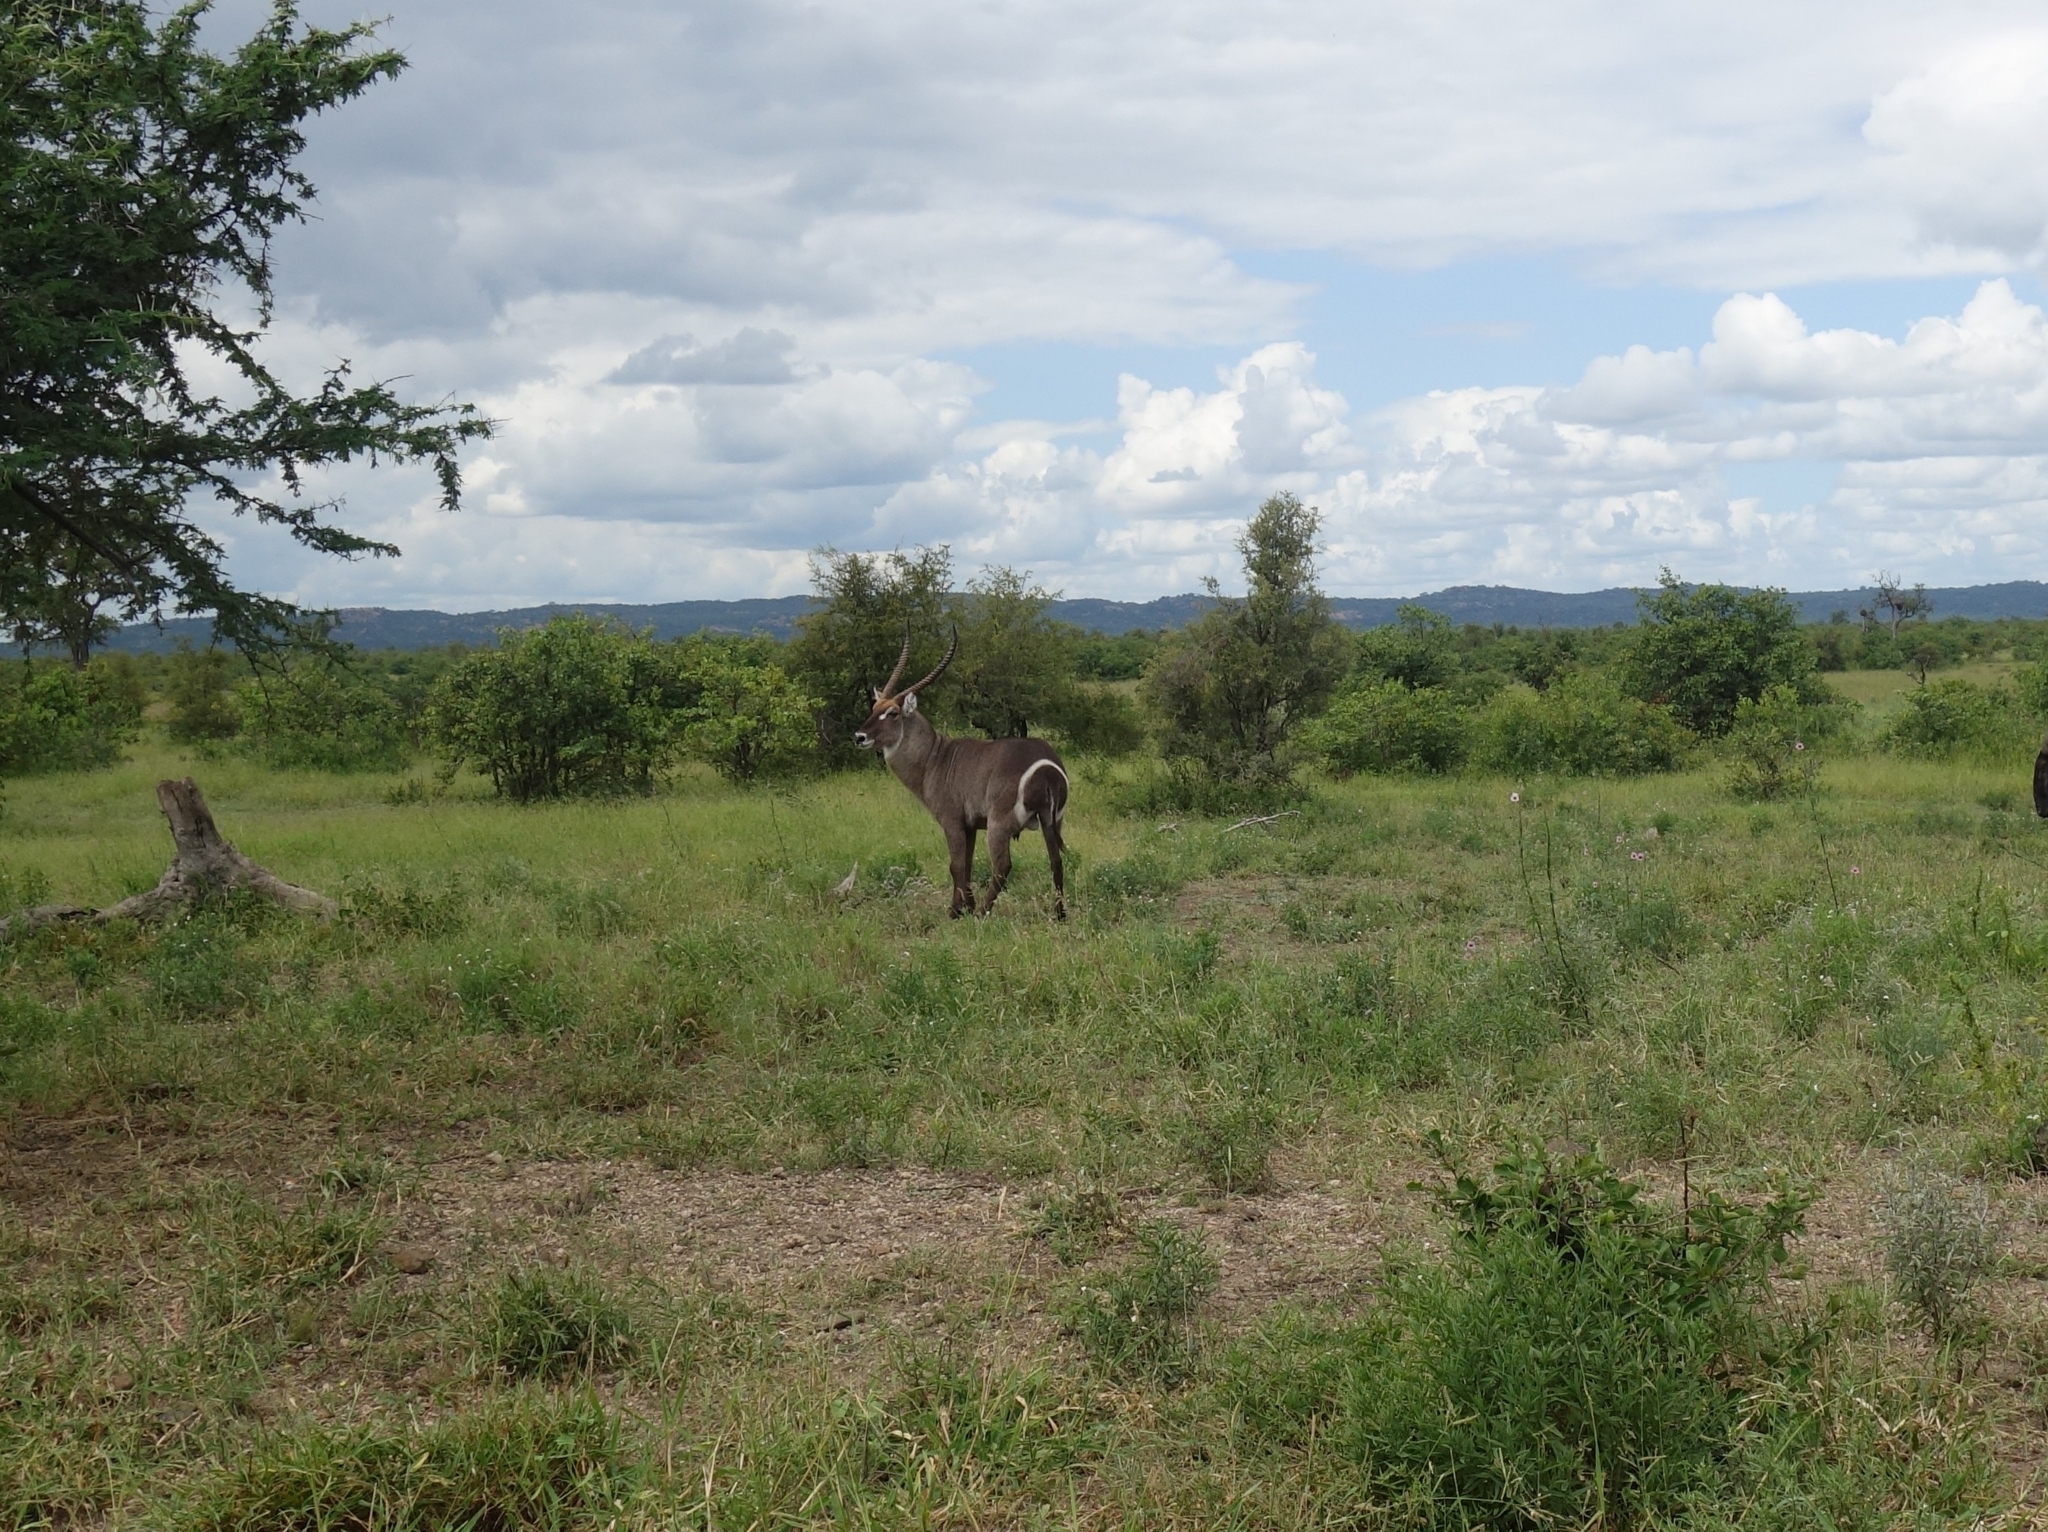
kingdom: Animalia
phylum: Chordata
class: Mammalia
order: Artiodactyla
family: Bovidae
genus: Kobus
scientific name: Kobus ellipsiprymnus
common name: Waterbuck
